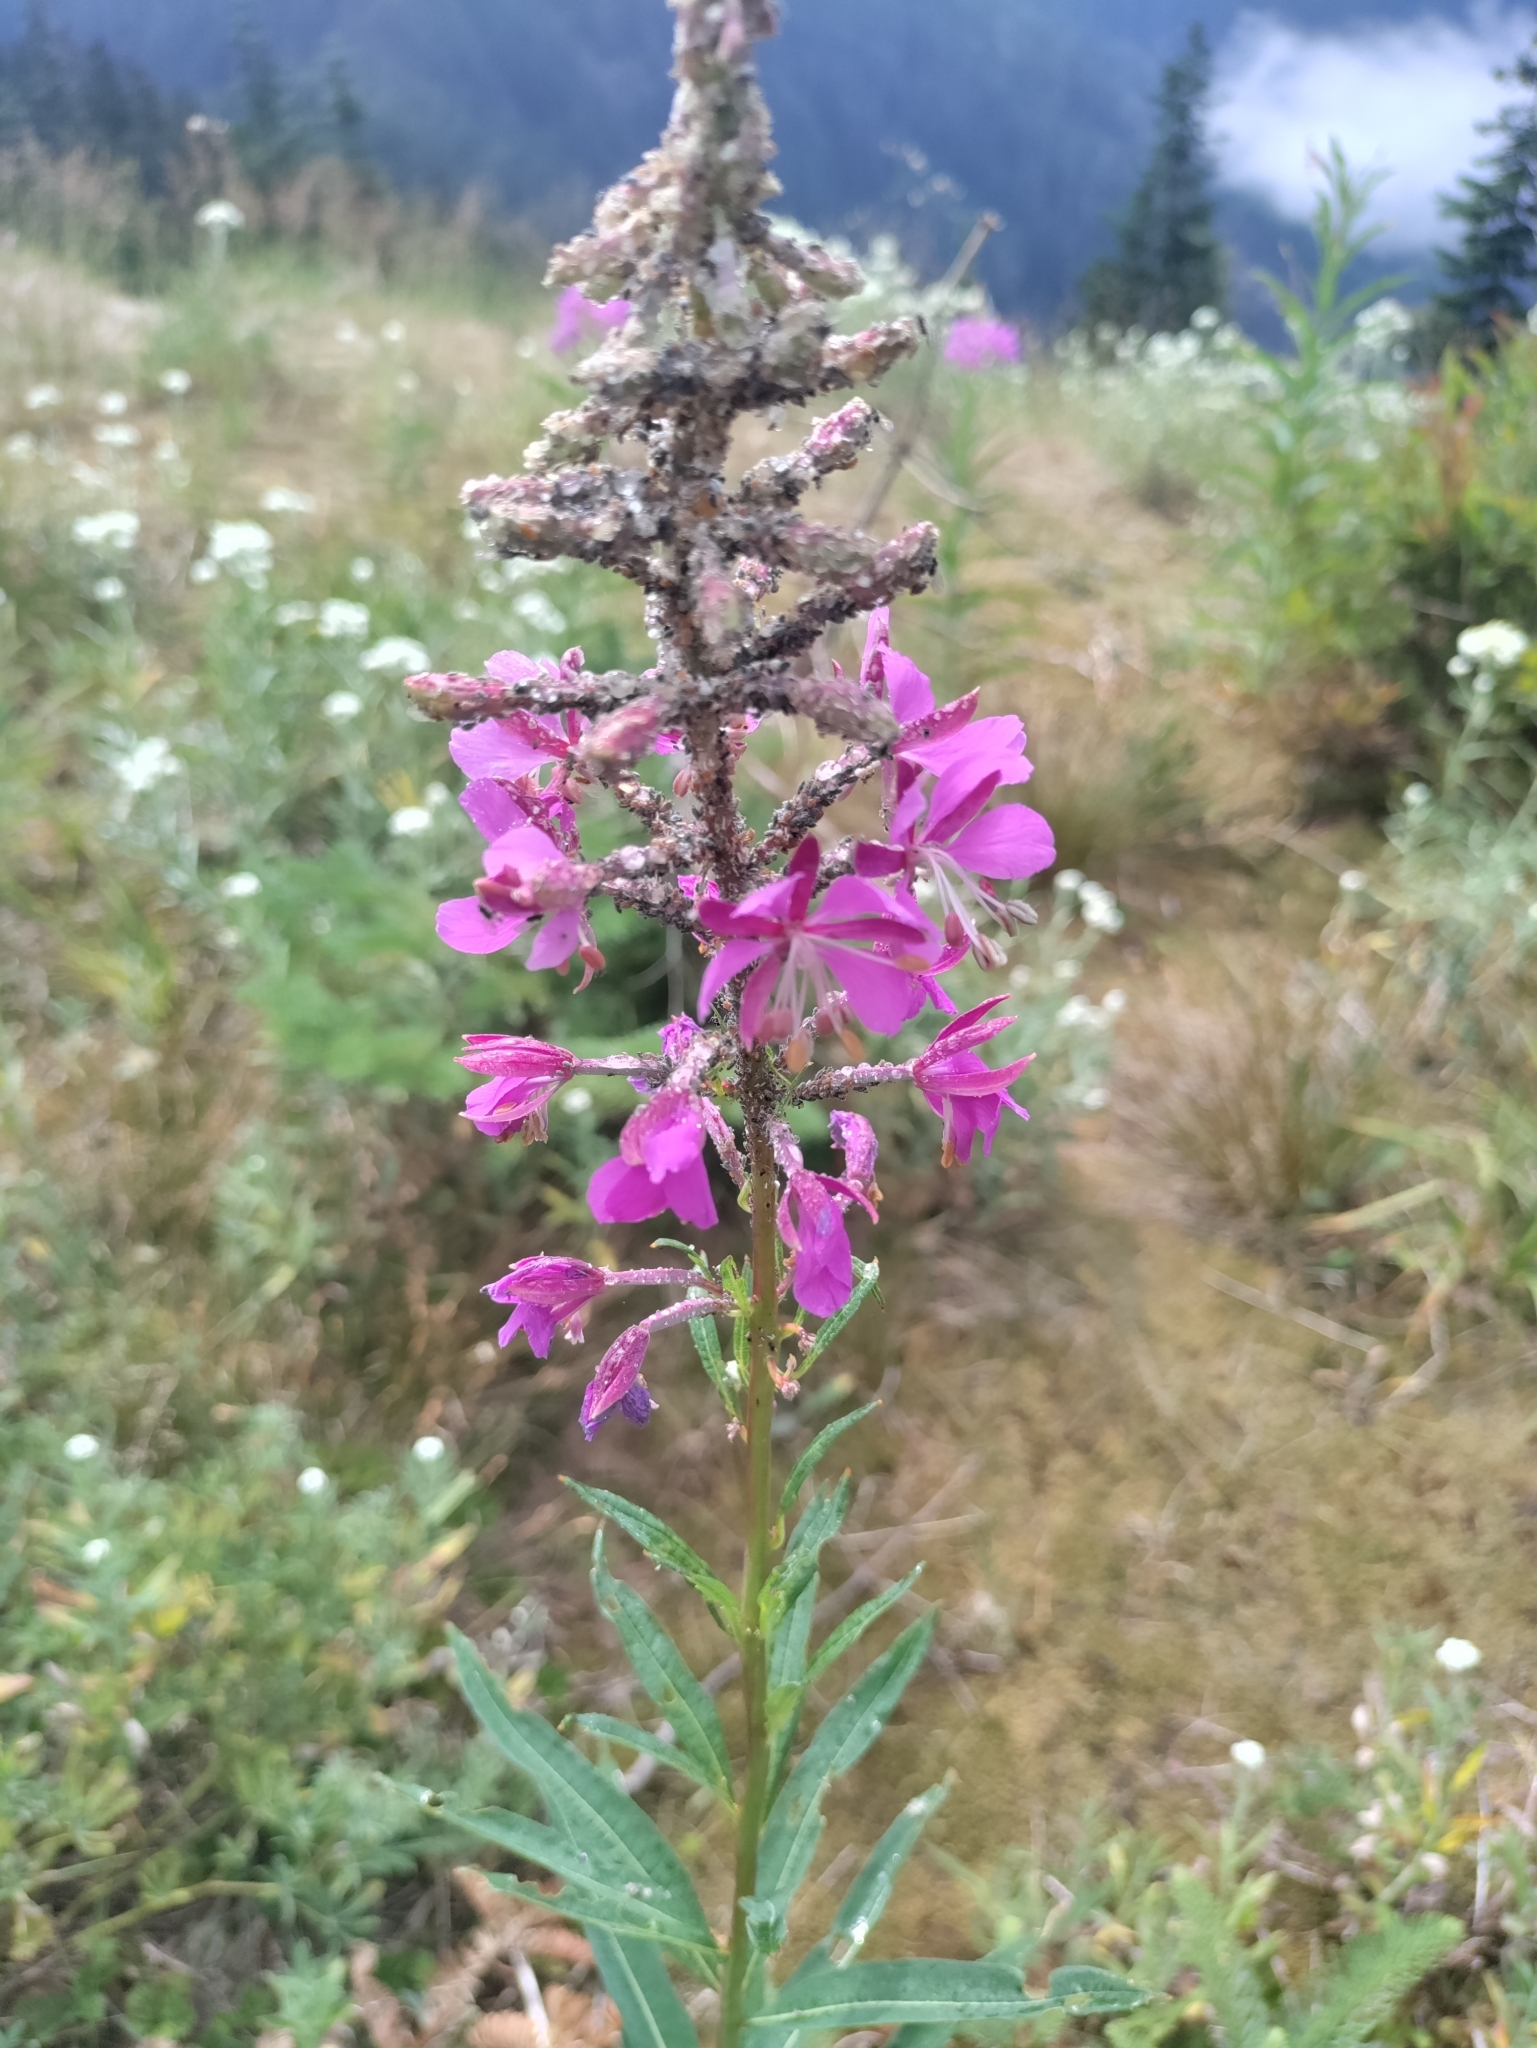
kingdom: Plantae
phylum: Tracheophyta
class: Magnoliopsida
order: Myrtales
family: Onagraceae
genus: Chamaenerion
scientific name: Chamaenerion angustifolium
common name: Fireweed
